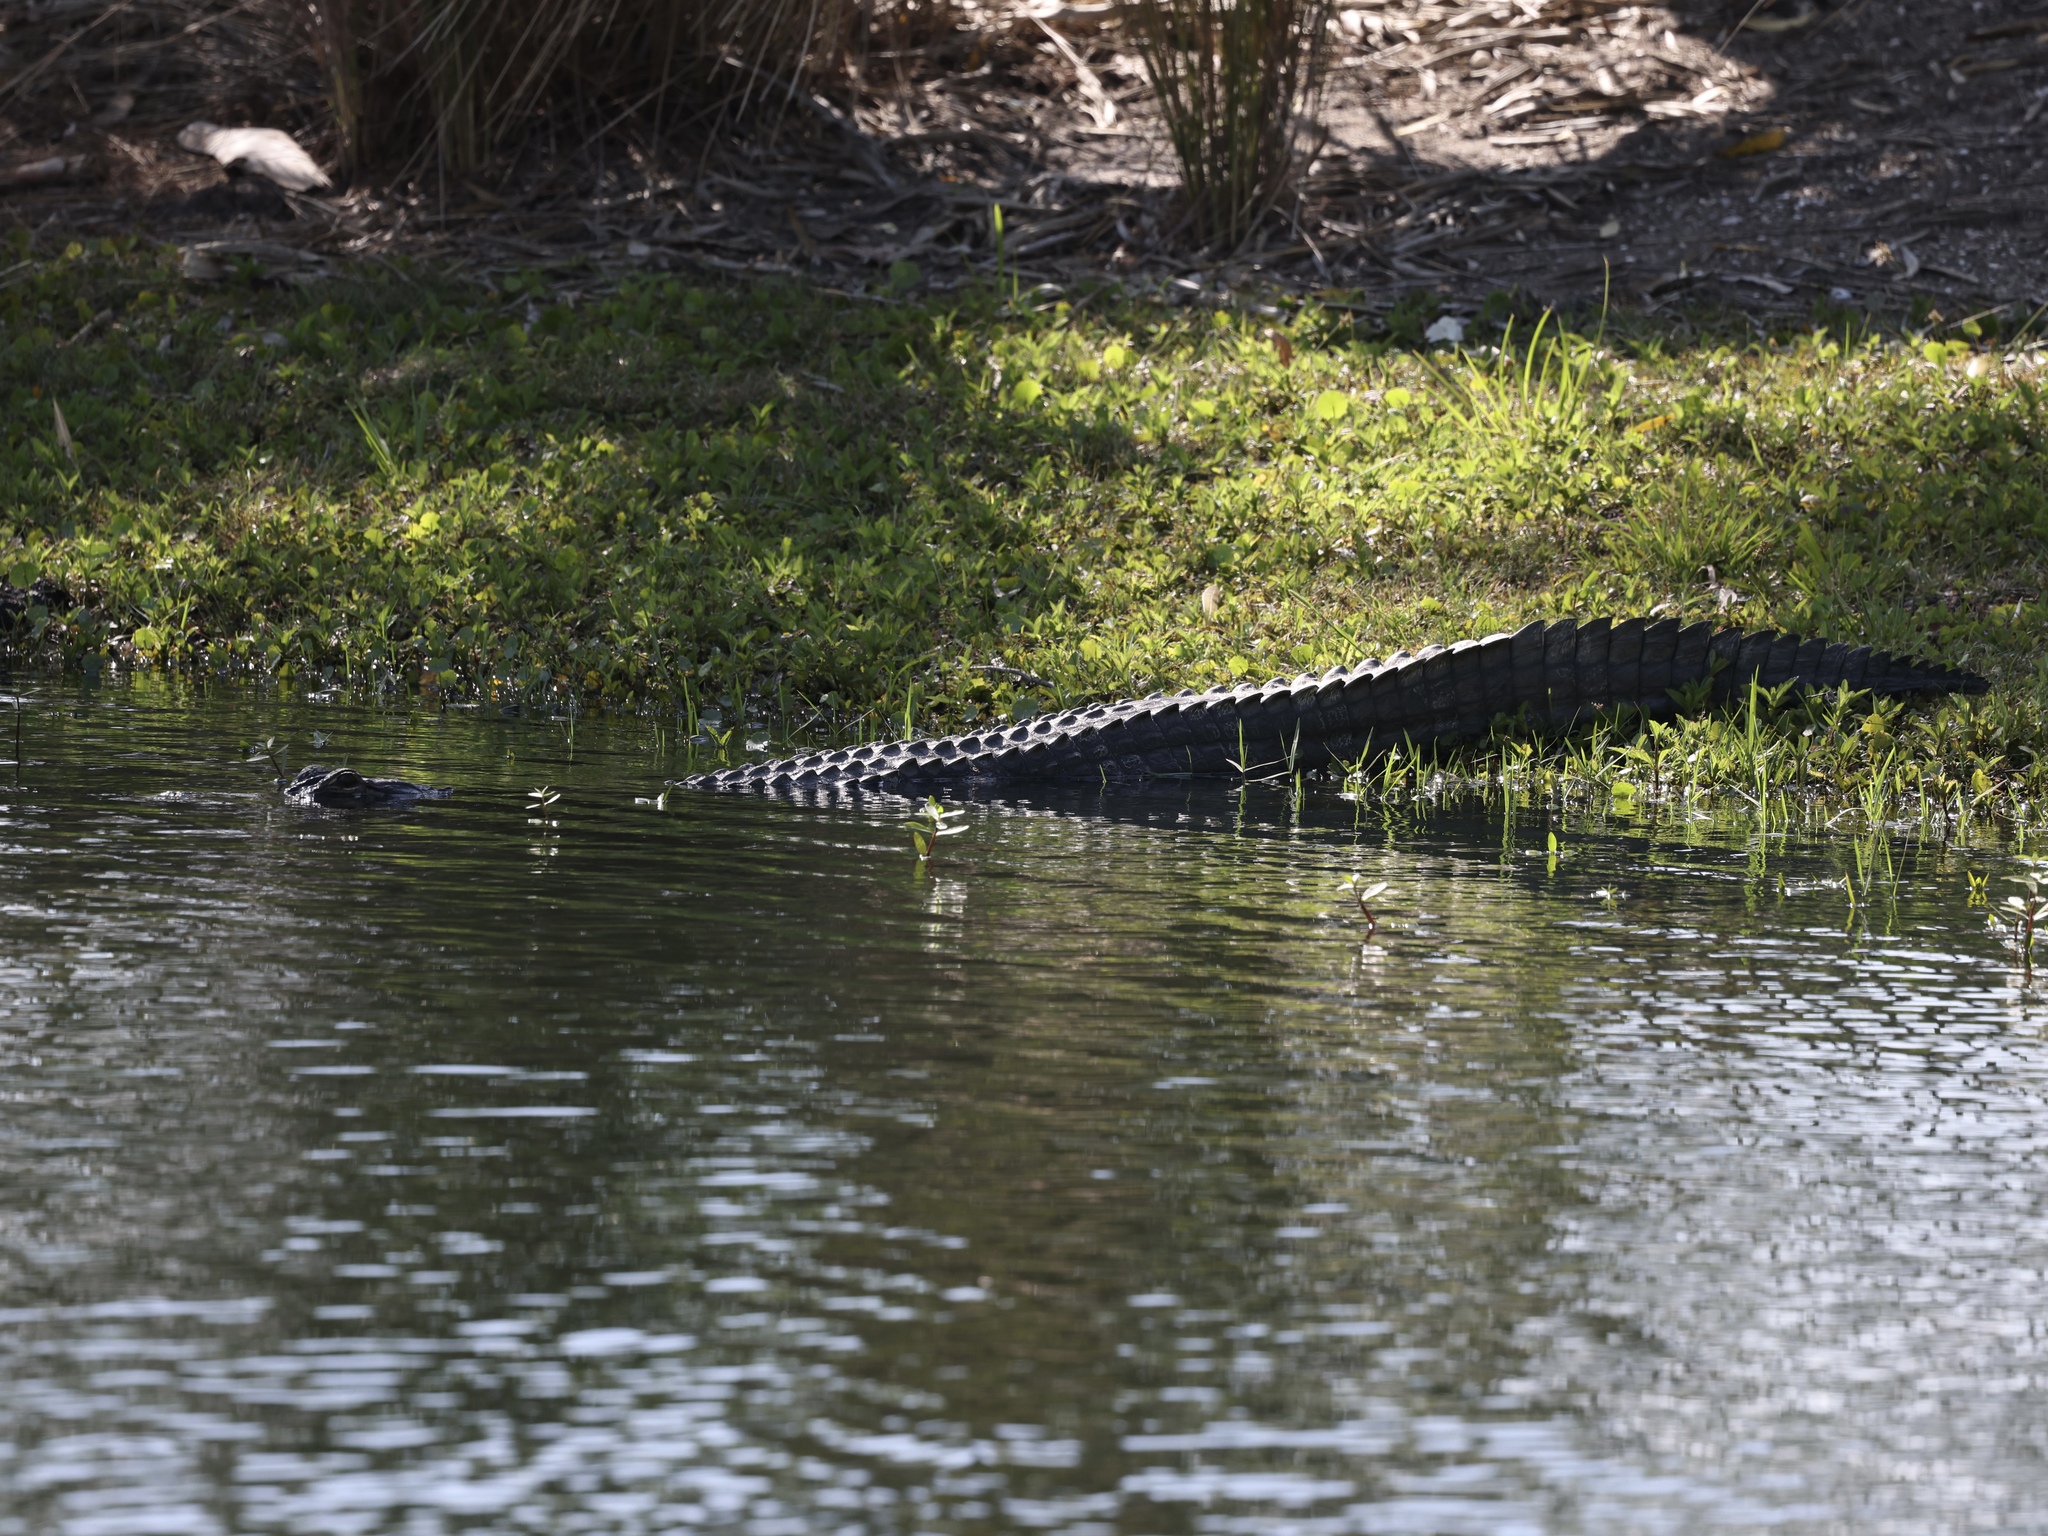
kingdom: Animalia
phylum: Chordata
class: Crocodylia
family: Alligatoridae
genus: Alligator
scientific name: Alligator mississippiensis
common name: American alligator
